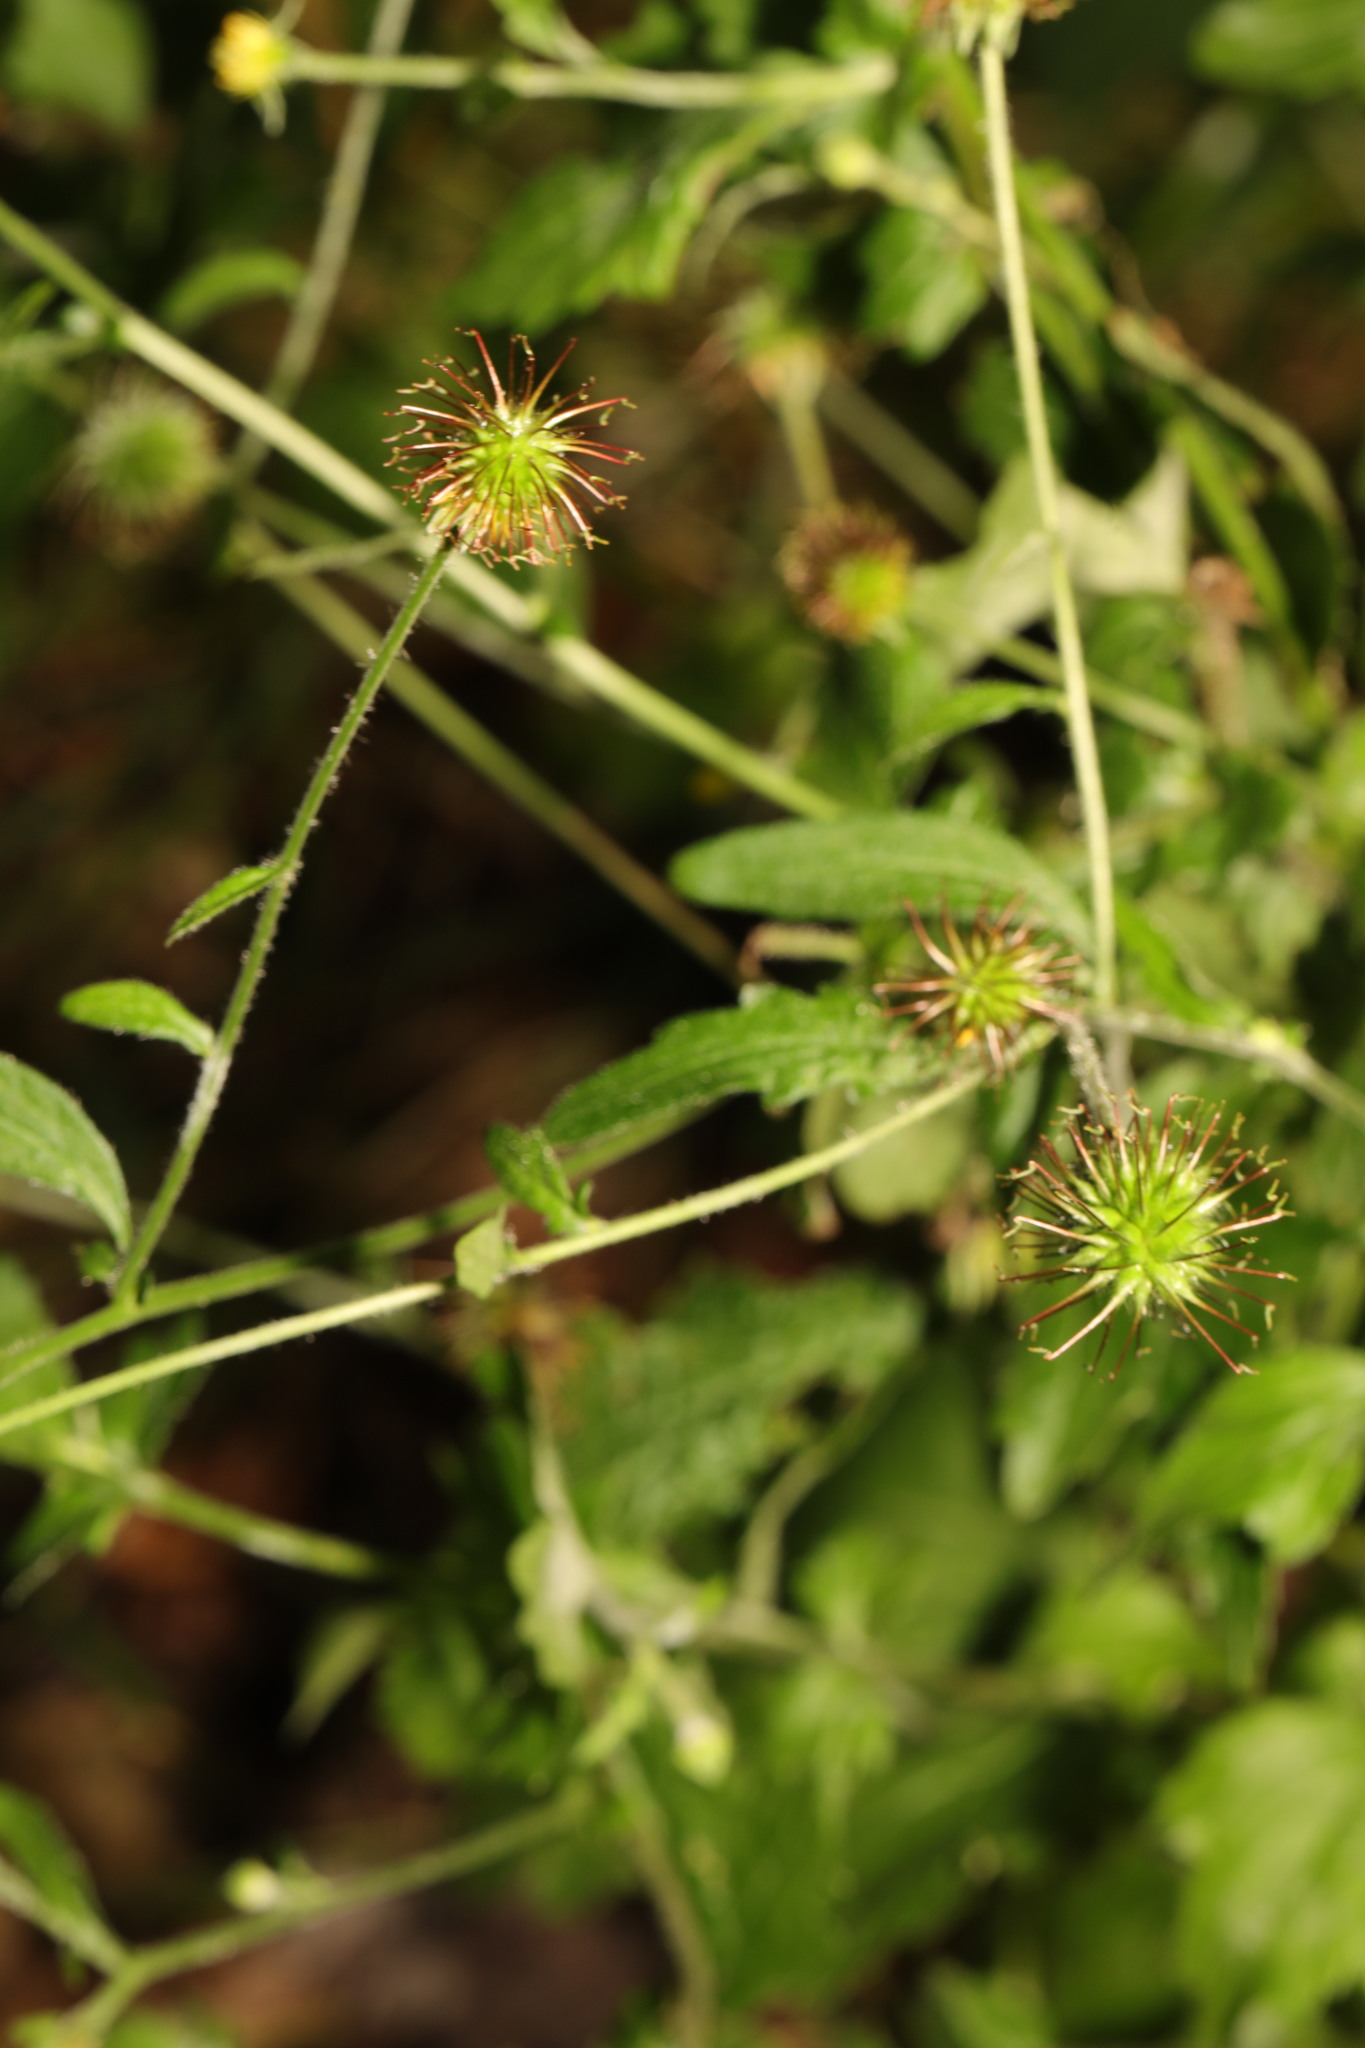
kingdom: Plantae
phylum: Tracheophyta
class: Magnoliopsida
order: Rosales
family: Rosaceae
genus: Geum
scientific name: Geum urbanum
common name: Wood avens
